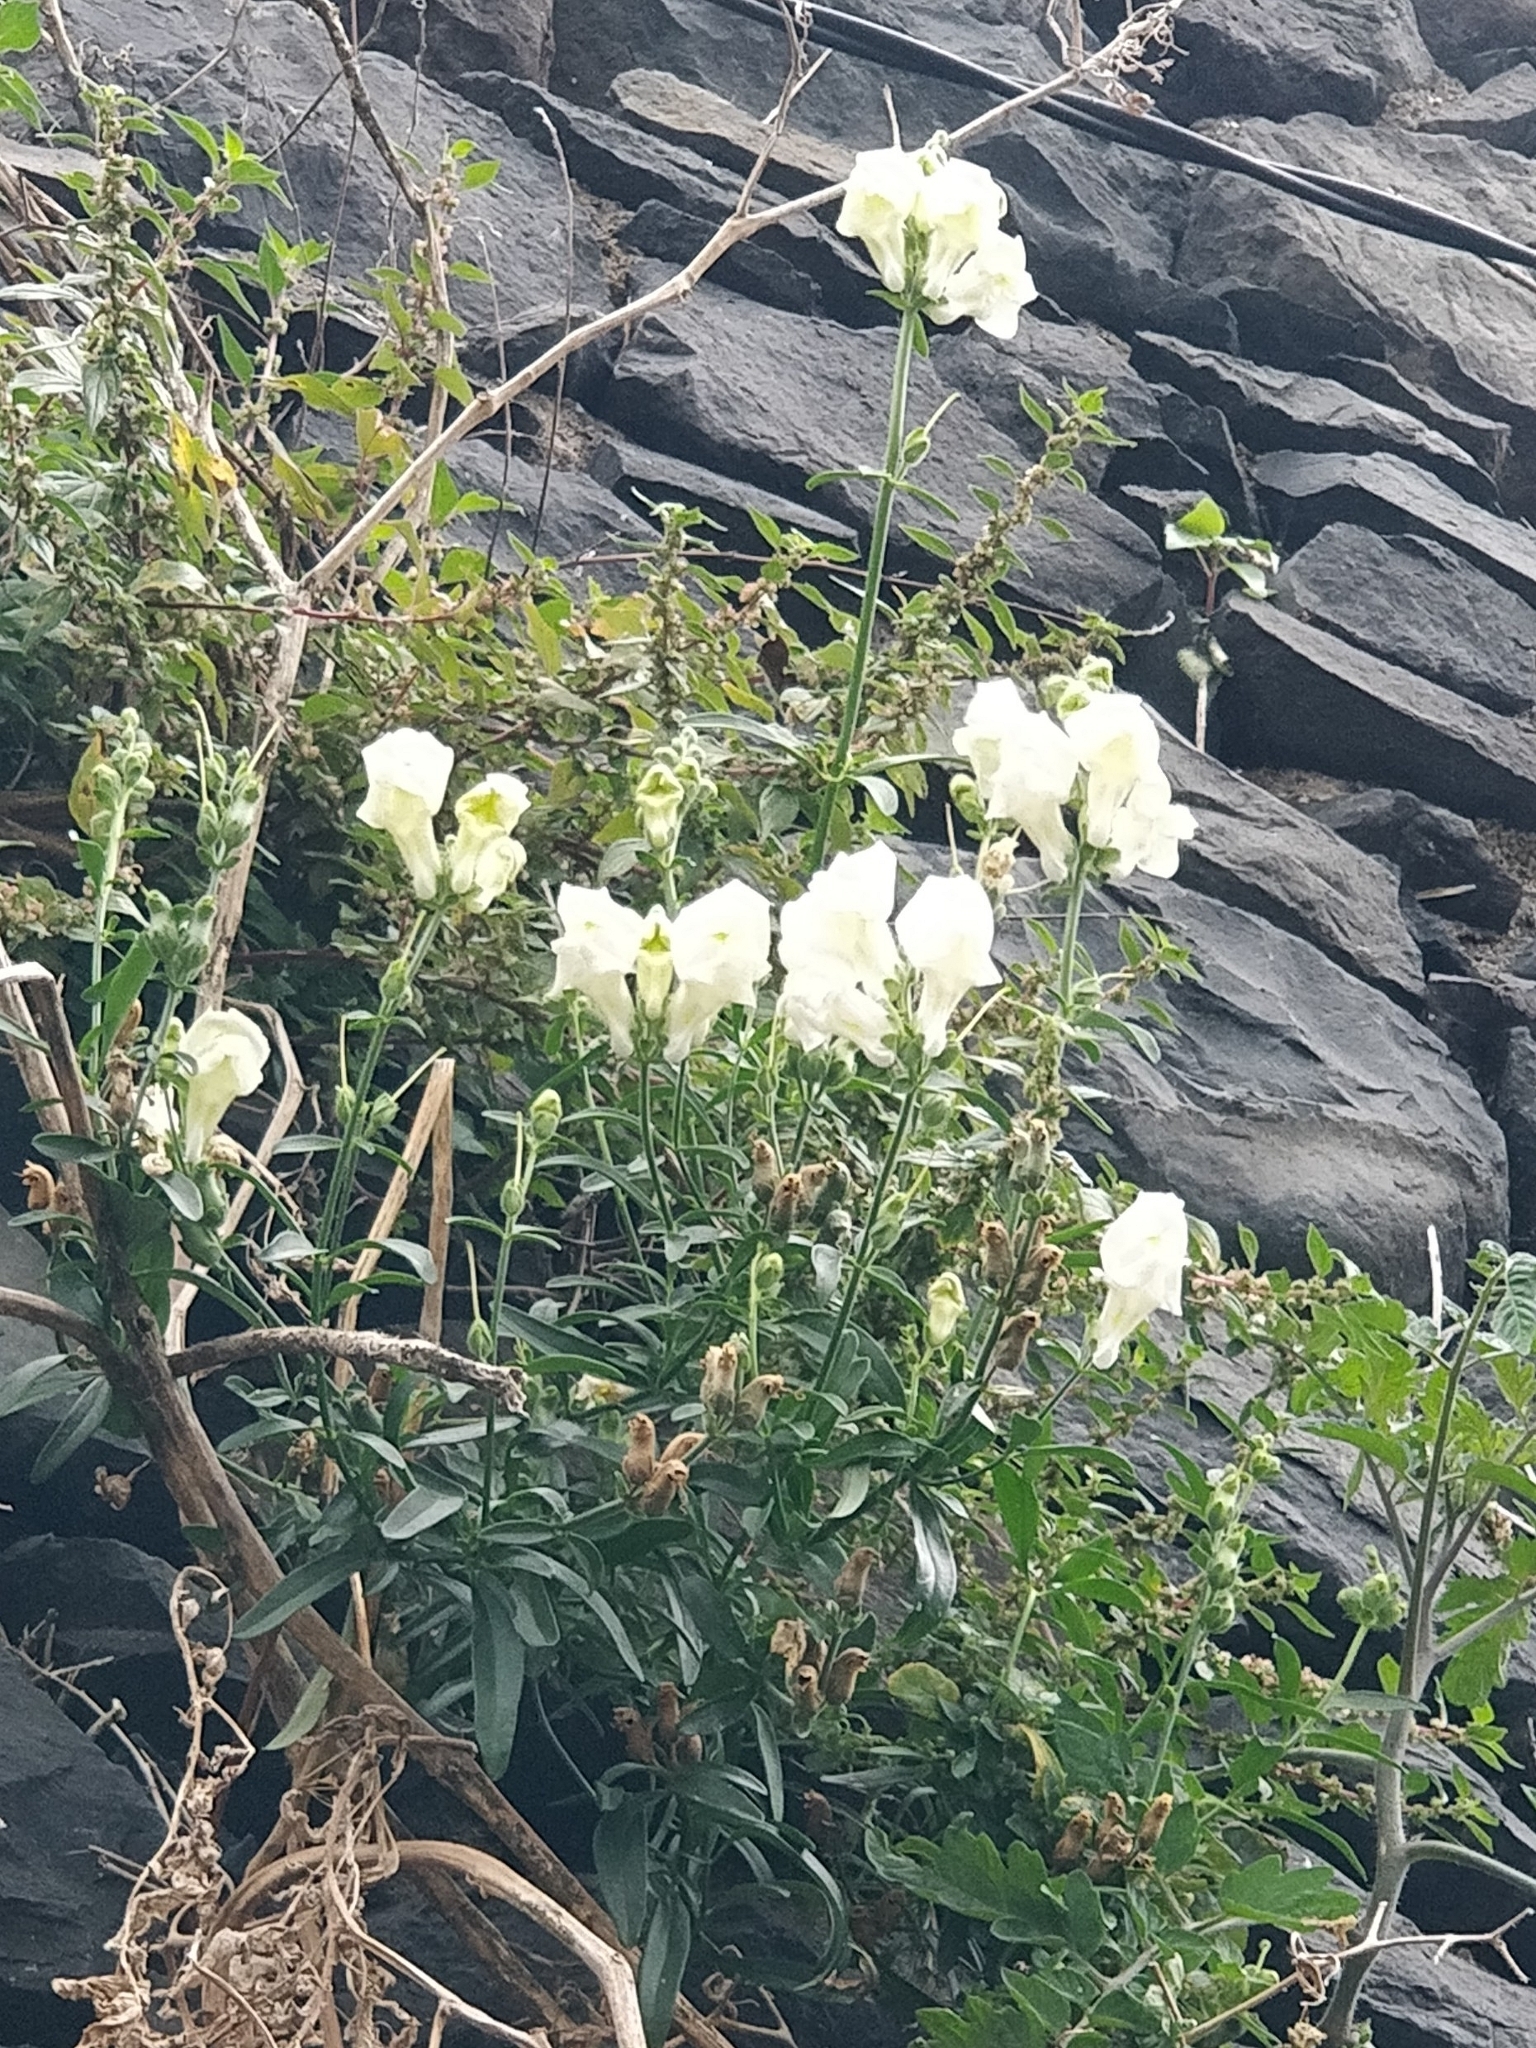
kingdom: Plantae
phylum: Tracheophyta
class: Magnoliopsida
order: Lamiales
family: Plantaginaceae
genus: Antirrhinum
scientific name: Antirrhinum majus
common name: Snapdragon
